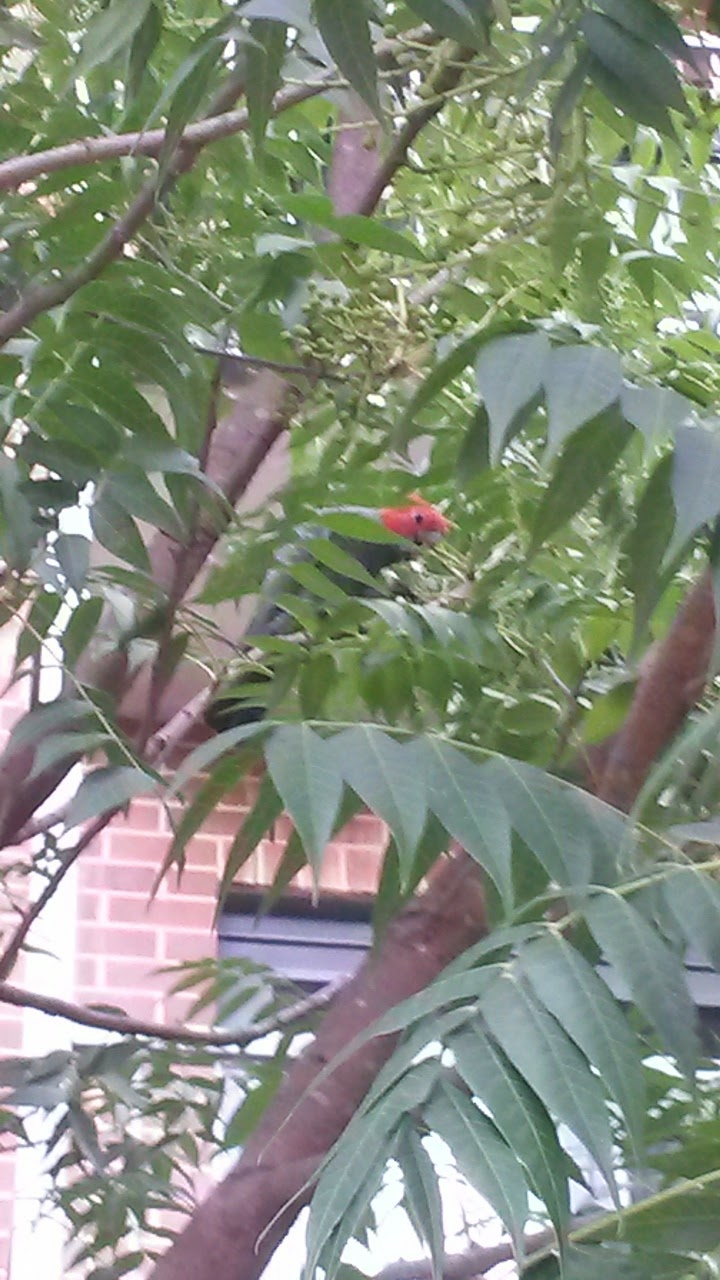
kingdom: Animalia
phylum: Chordata
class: Aves
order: Psittaciformes
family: Psittacidae
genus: Callocephalon
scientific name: Callocephalon fimbriatum
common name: Gang-gang cockatoo
